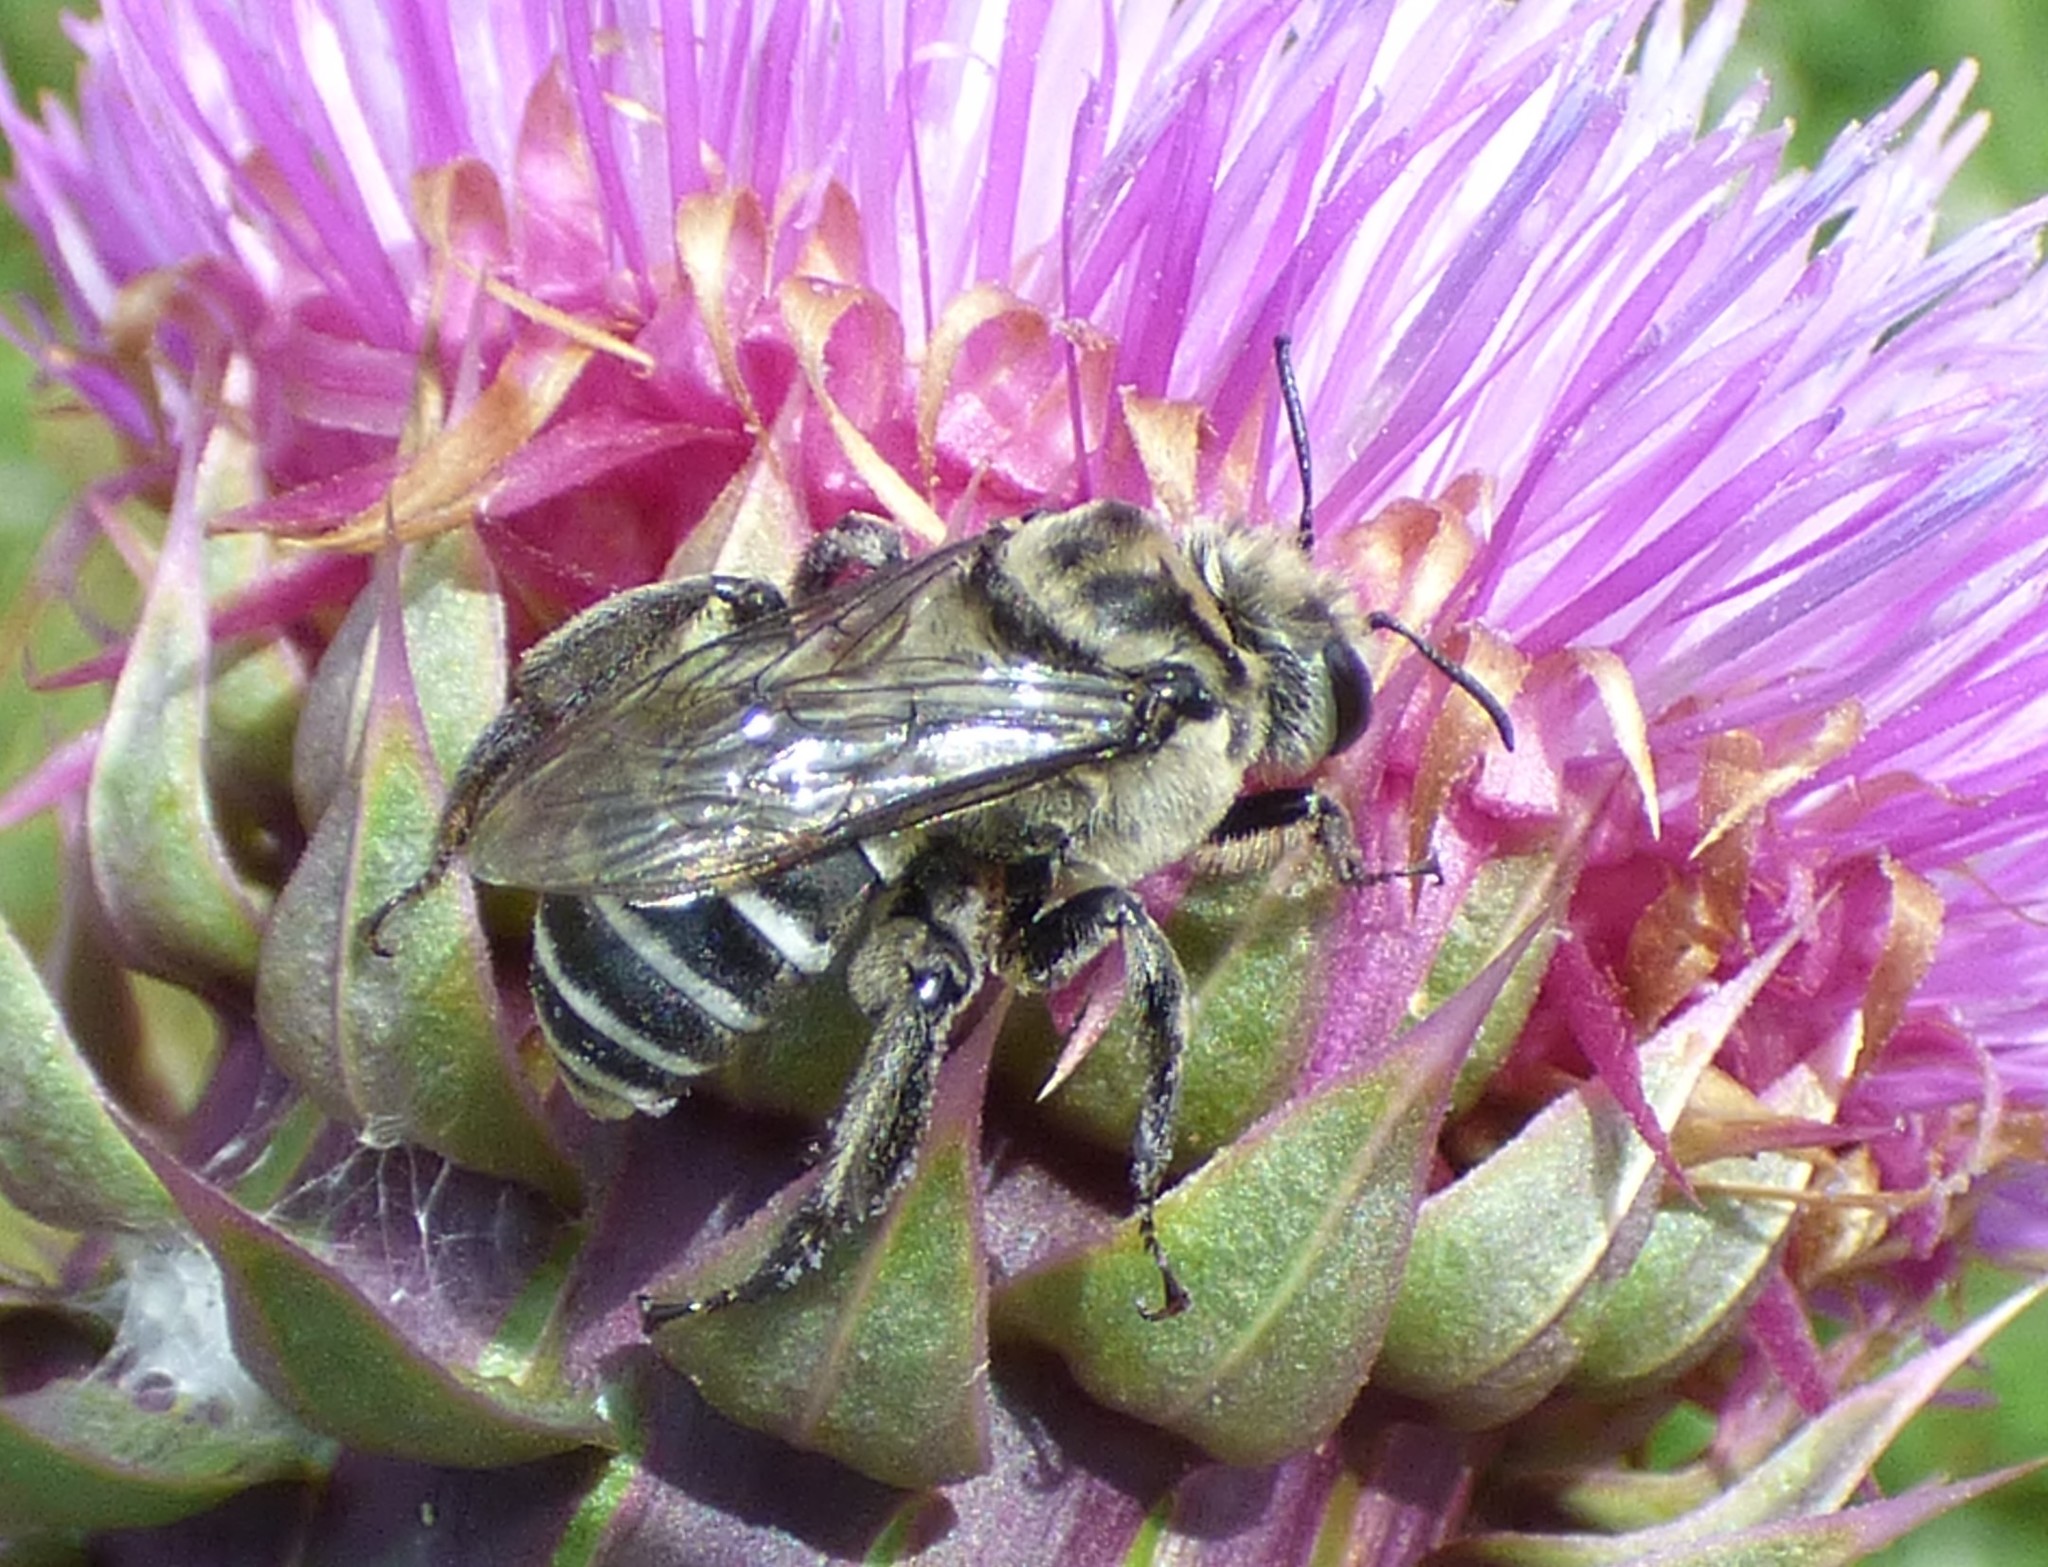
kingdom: Animalia
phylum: Arthropoda
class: Insecta
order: Hymenoptera
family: Apidae
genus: Melitoma
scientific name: Melitoma taurea
